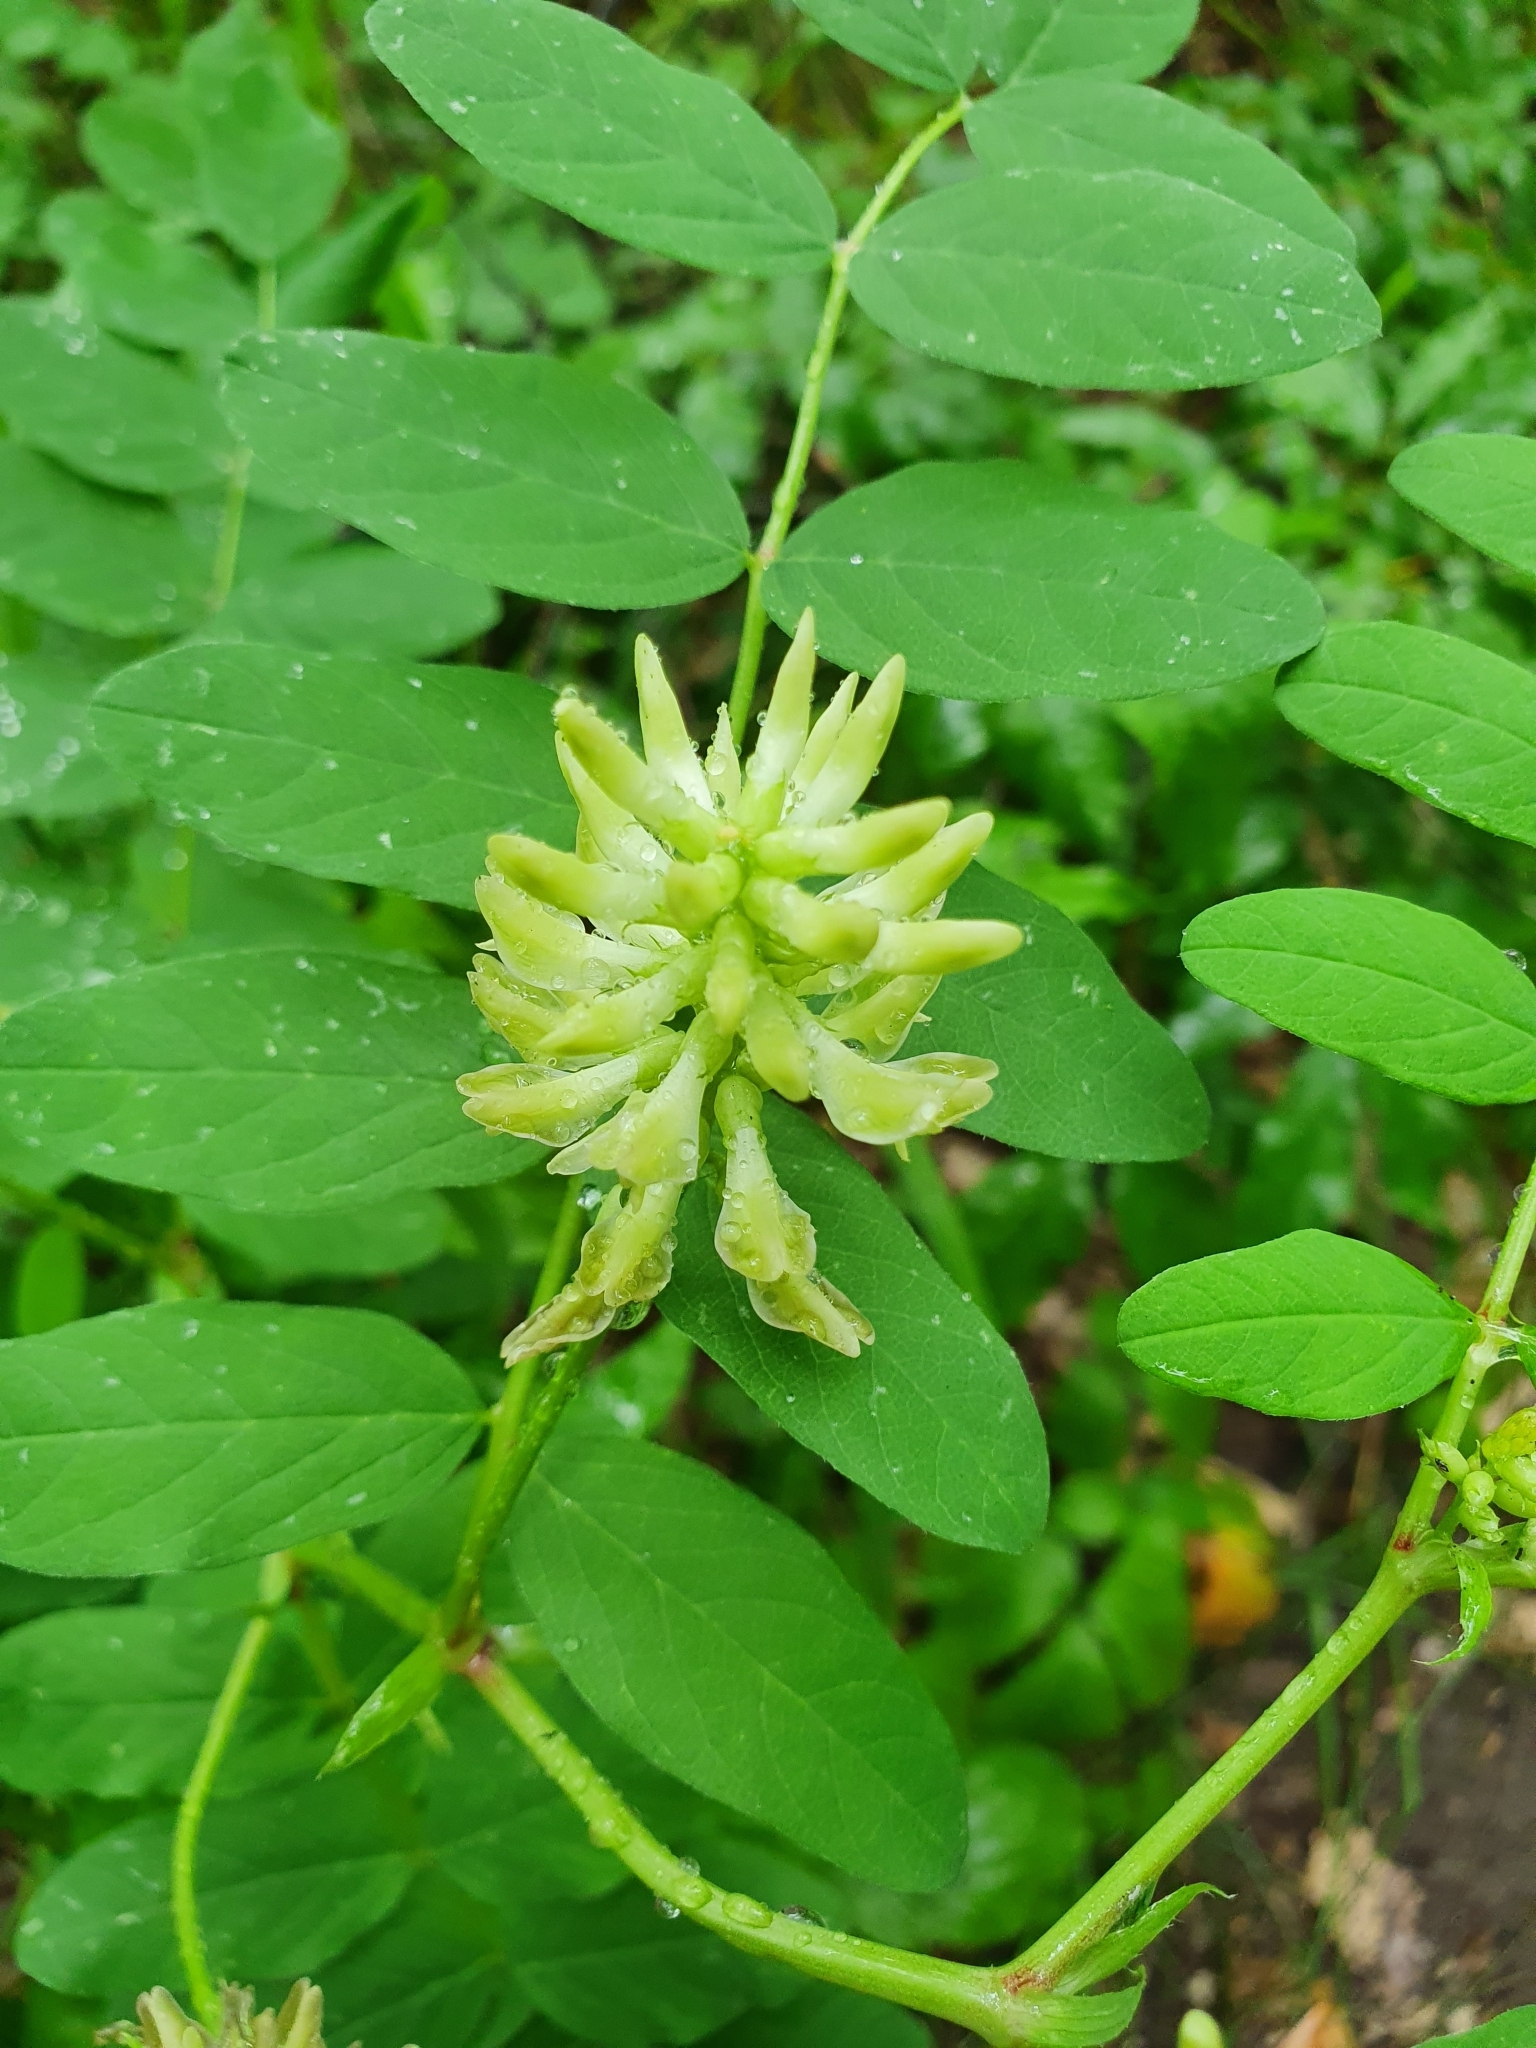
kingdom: Plantae
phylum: Tracheophyta
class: Magnoliopsida
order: Fabales
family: Fabaceae
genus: Astragalus
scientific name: Astragalus glycyphyllos
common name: Wild liquorice
